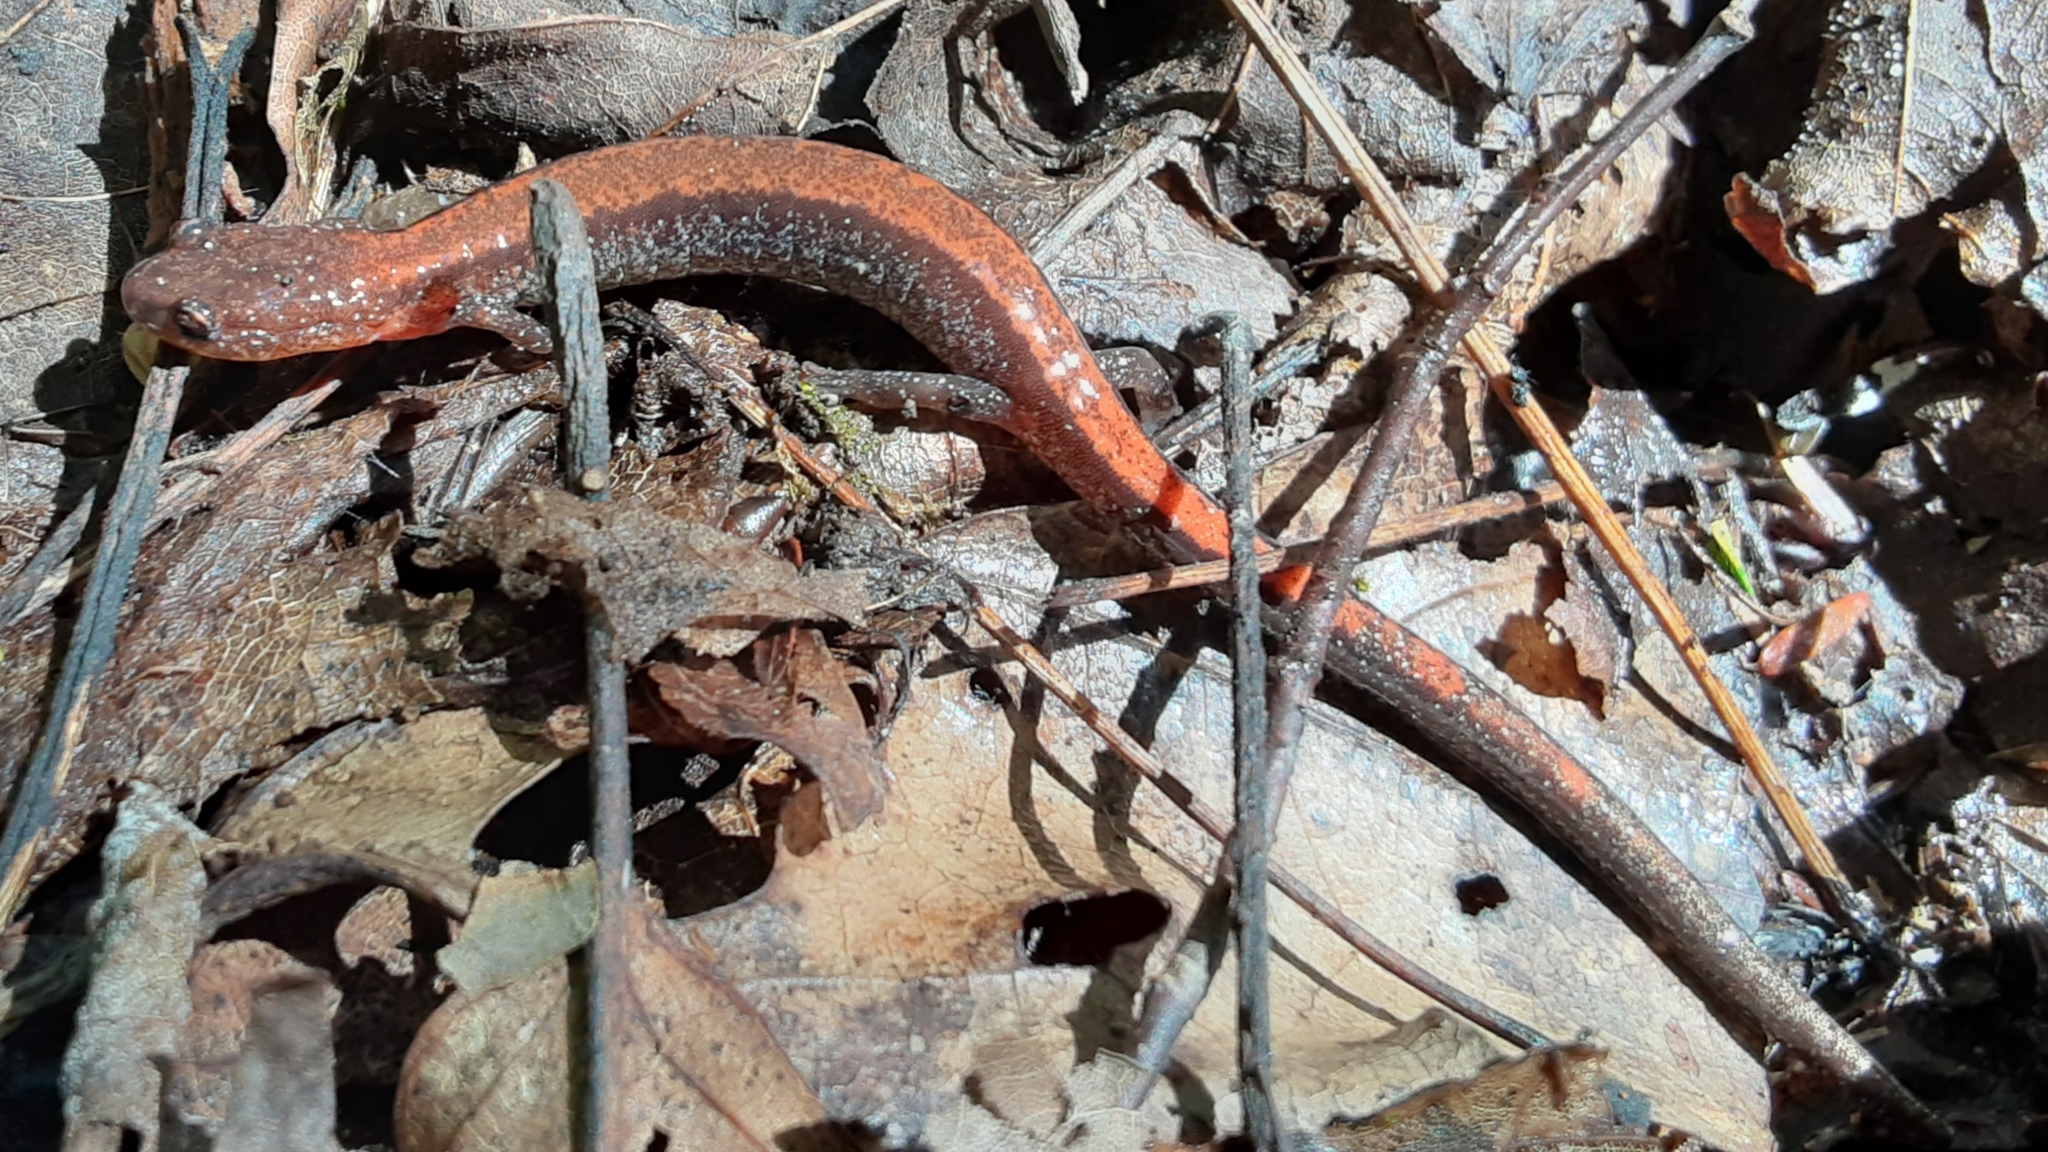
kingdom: Animalia
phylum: Chordata
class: Amphibia
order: Caudata
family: Plethodontidae
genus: Plethodon
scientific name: Plethodon cinereus
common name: Redback salamander
